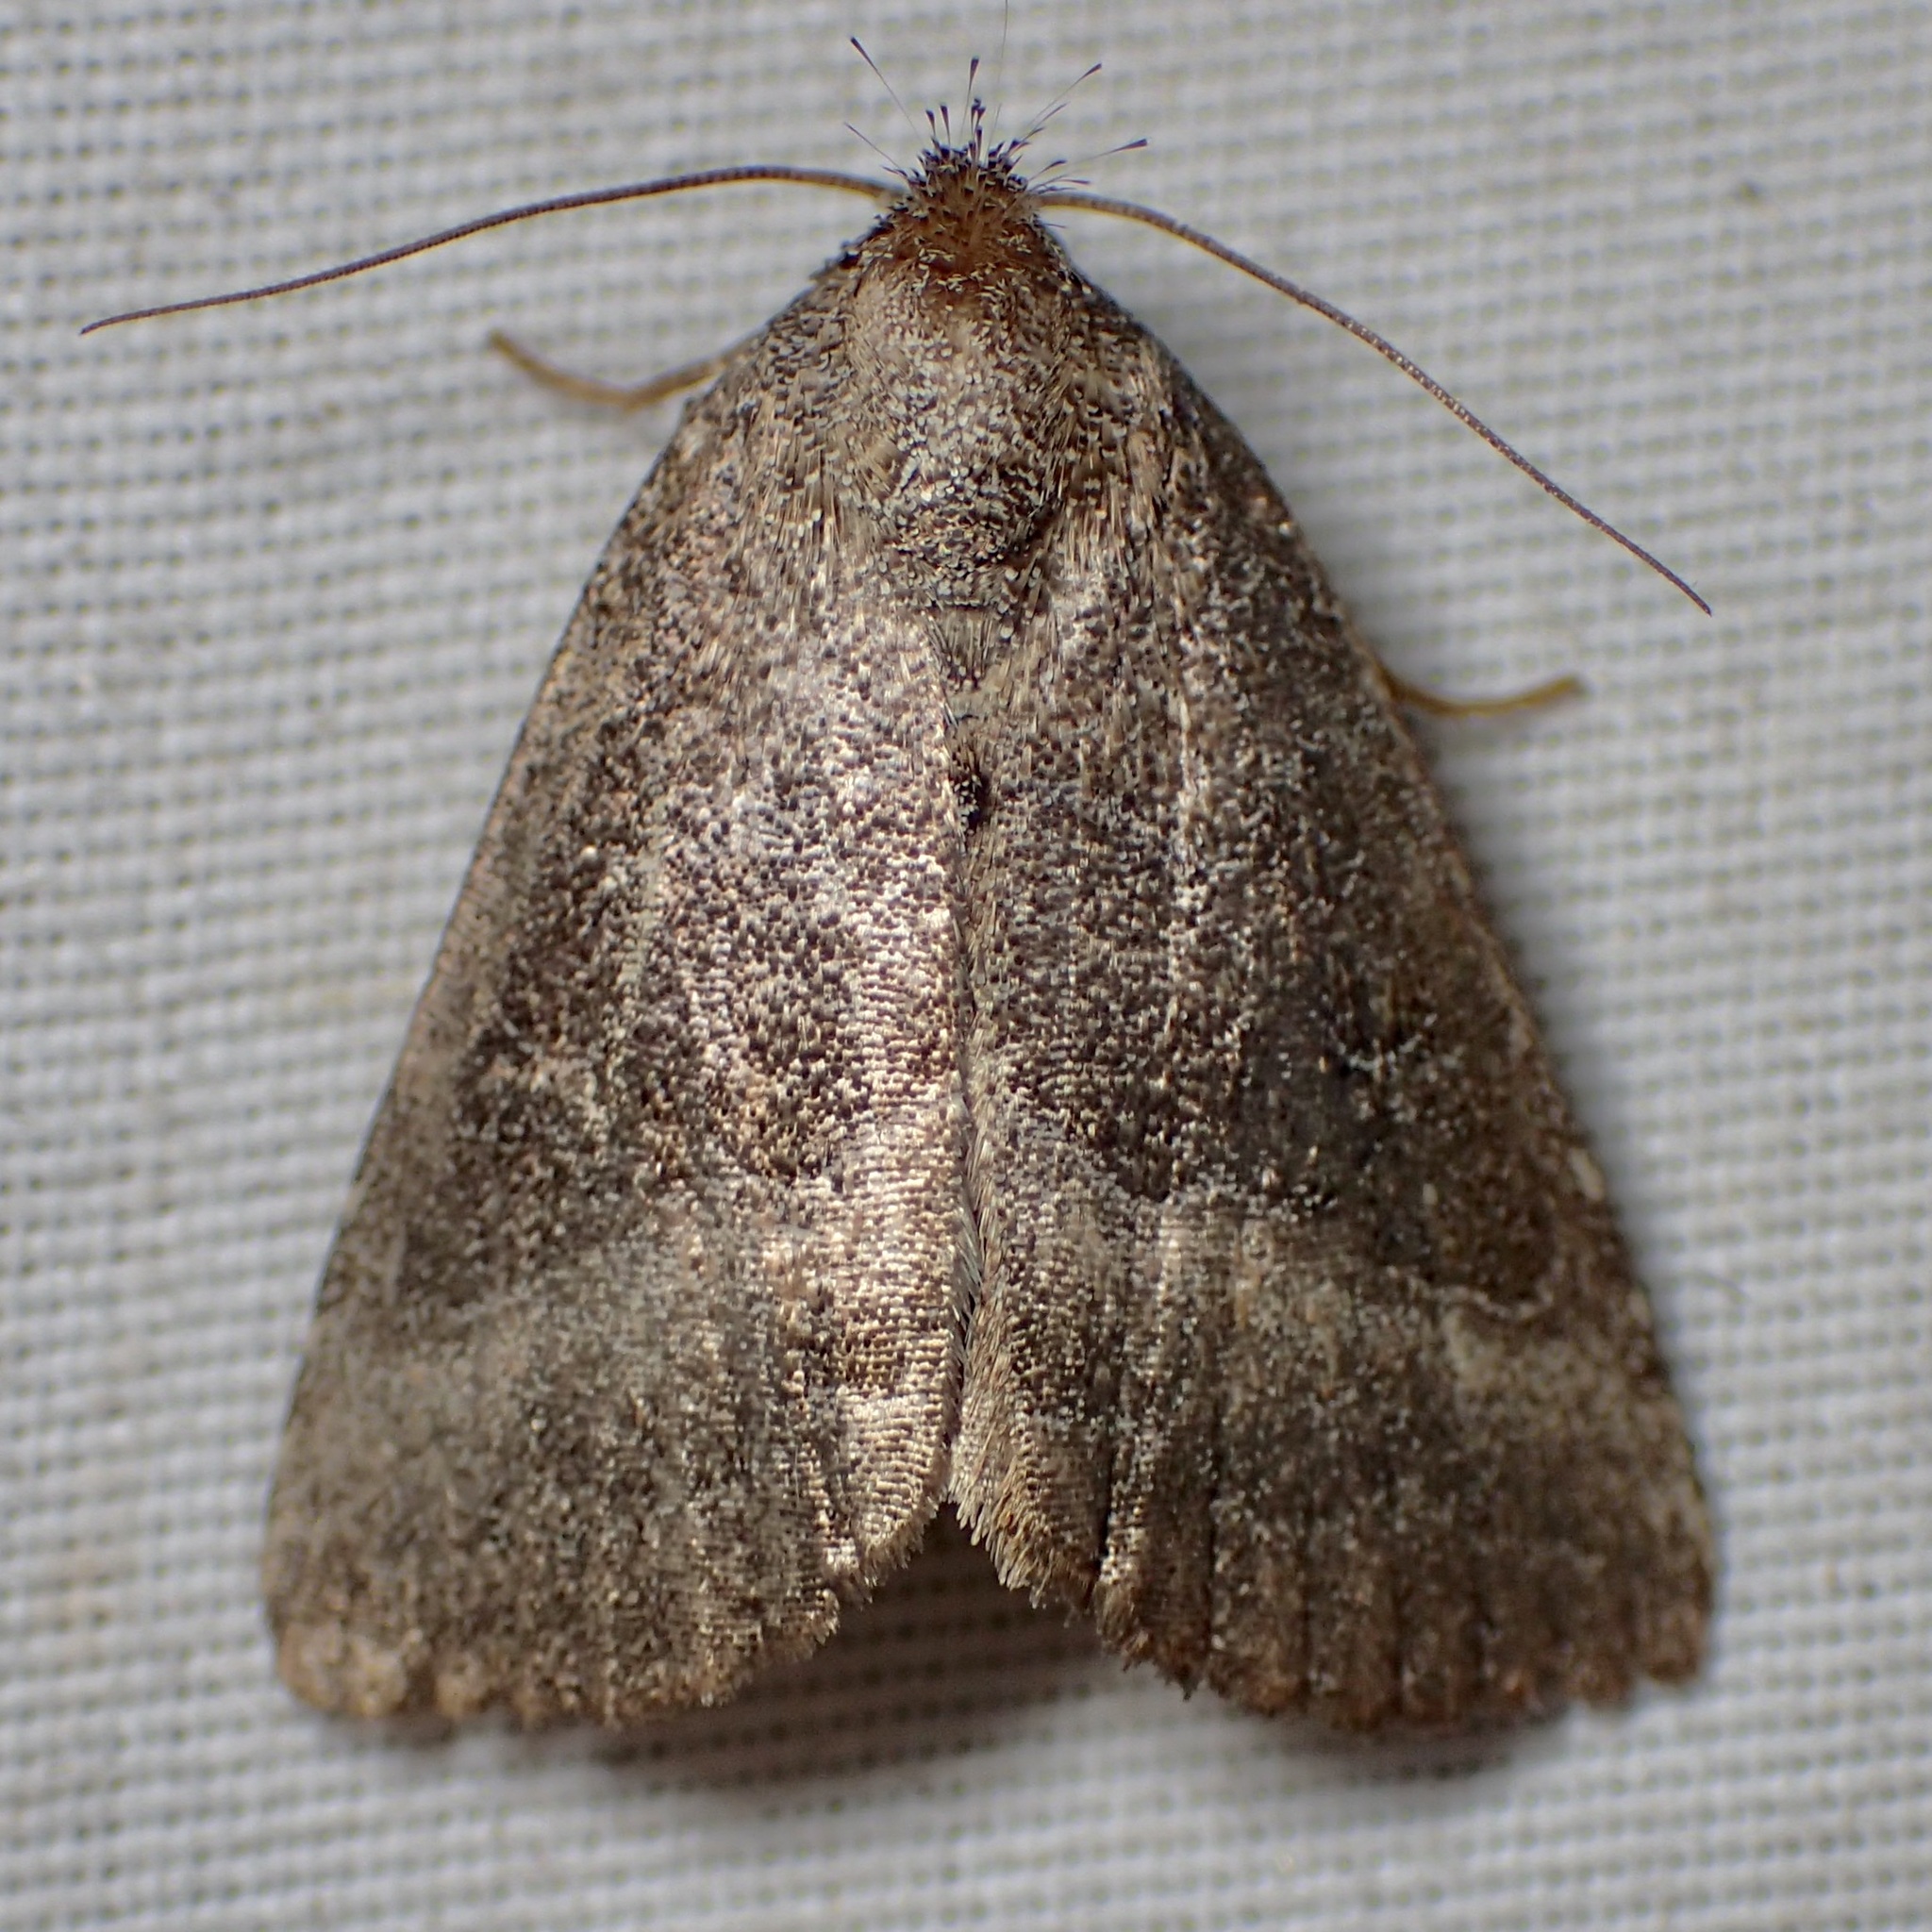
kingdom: Animalia
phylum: Arthropoda
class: Insecta
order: Lepidoptera
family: Noctuidae
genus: Ogdoconta
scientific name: Ogdoconta cinereola
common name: Common pinkband
